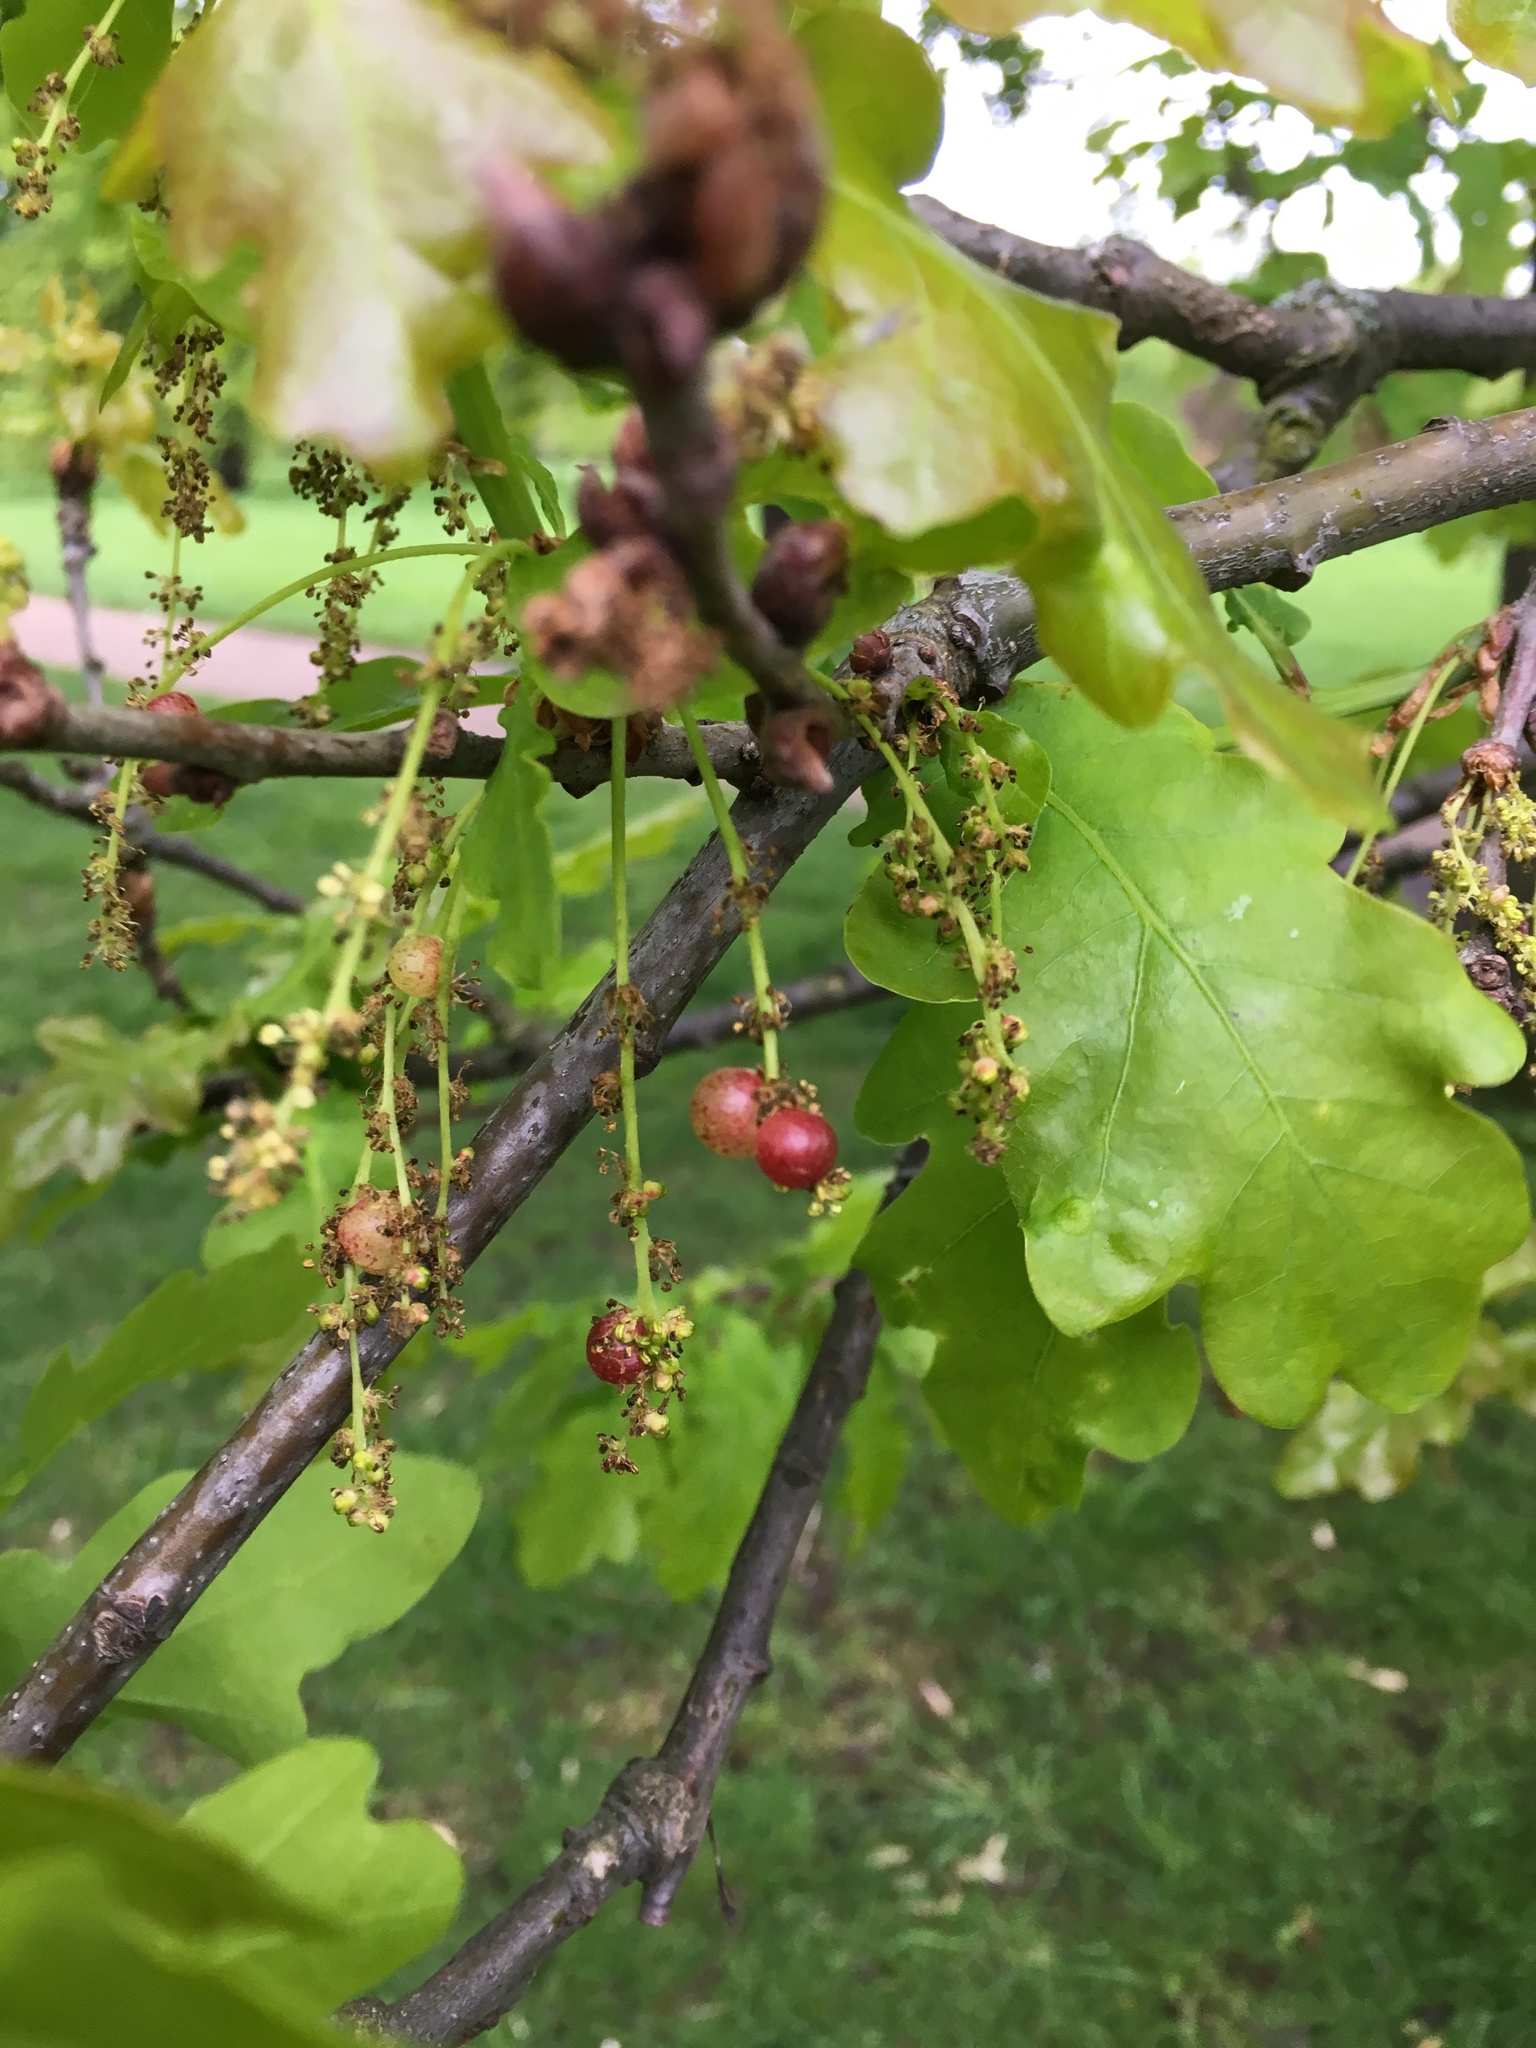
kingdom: Animalia
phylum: Arthropoda
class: Insecta
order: Hymenoptera
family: Cynipidae
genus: Neuroterus
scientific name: Neuroterus quercusbaccarum
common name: Common spangle gall
